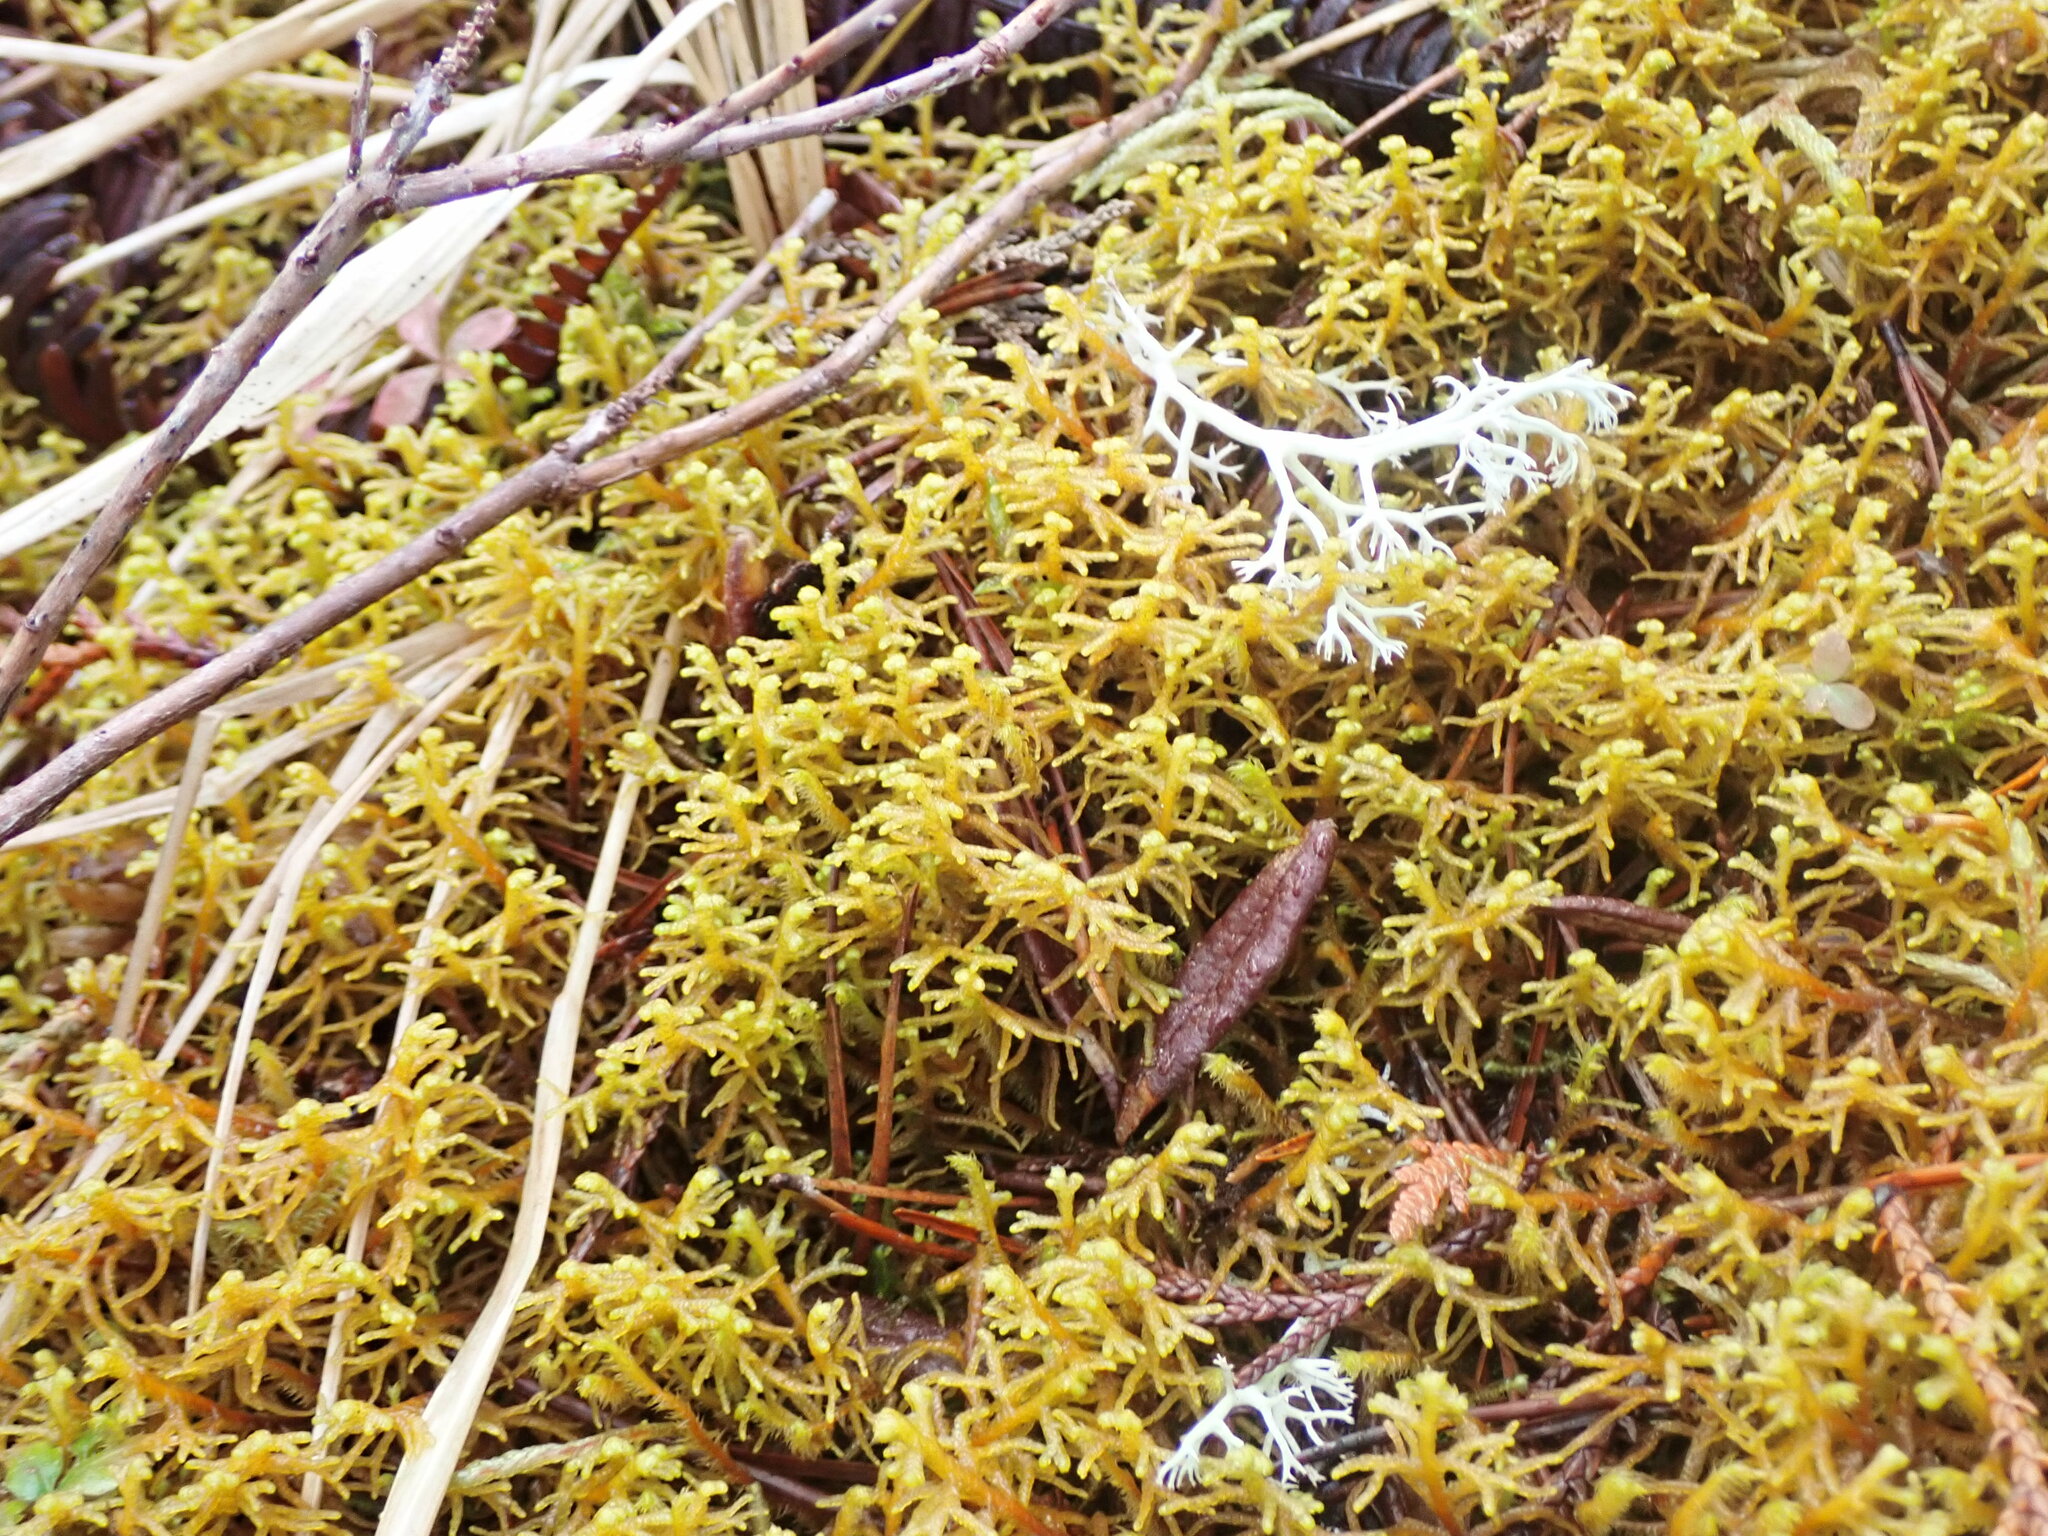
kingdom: Plantae
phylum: Marchantiophyta
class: Jungermanniopsida
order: Jungermanniales
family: Mastigophoraceae
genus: Mastigophora
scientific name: Mastigophora woodsii
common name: Wood's whipwort
